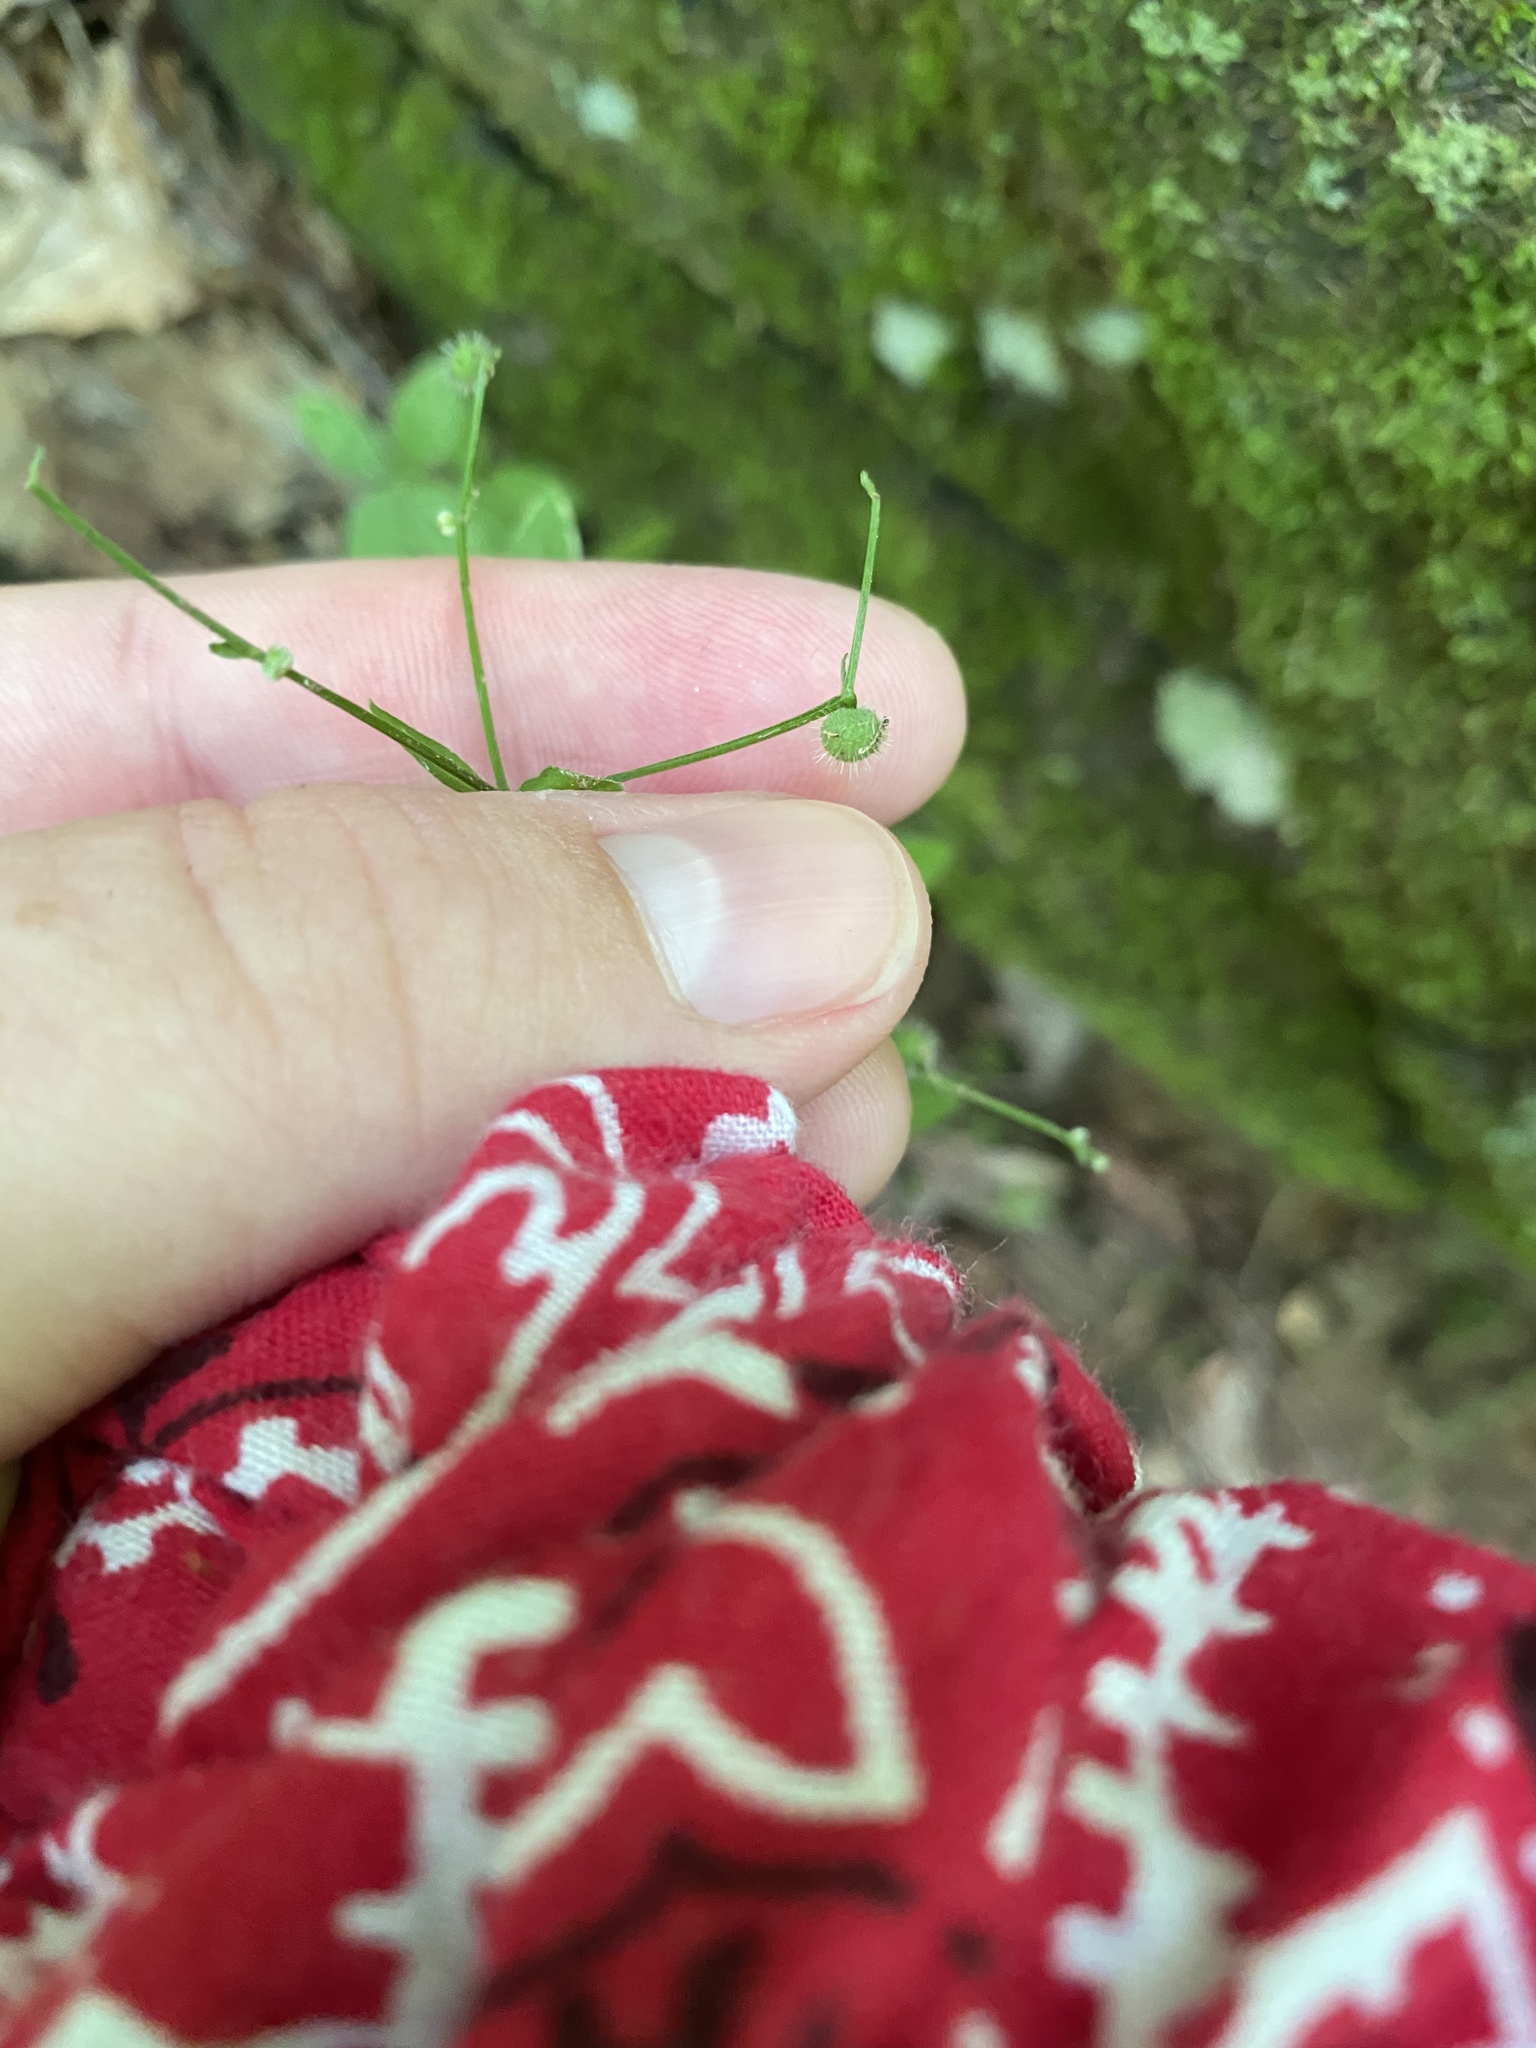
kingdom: Plantae
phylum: Tracheophyta
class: Magnoliopsida
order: Gentianales
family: Rubiaceae
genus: Galium
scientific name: Galium circaezans
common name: Forest bedstraw
